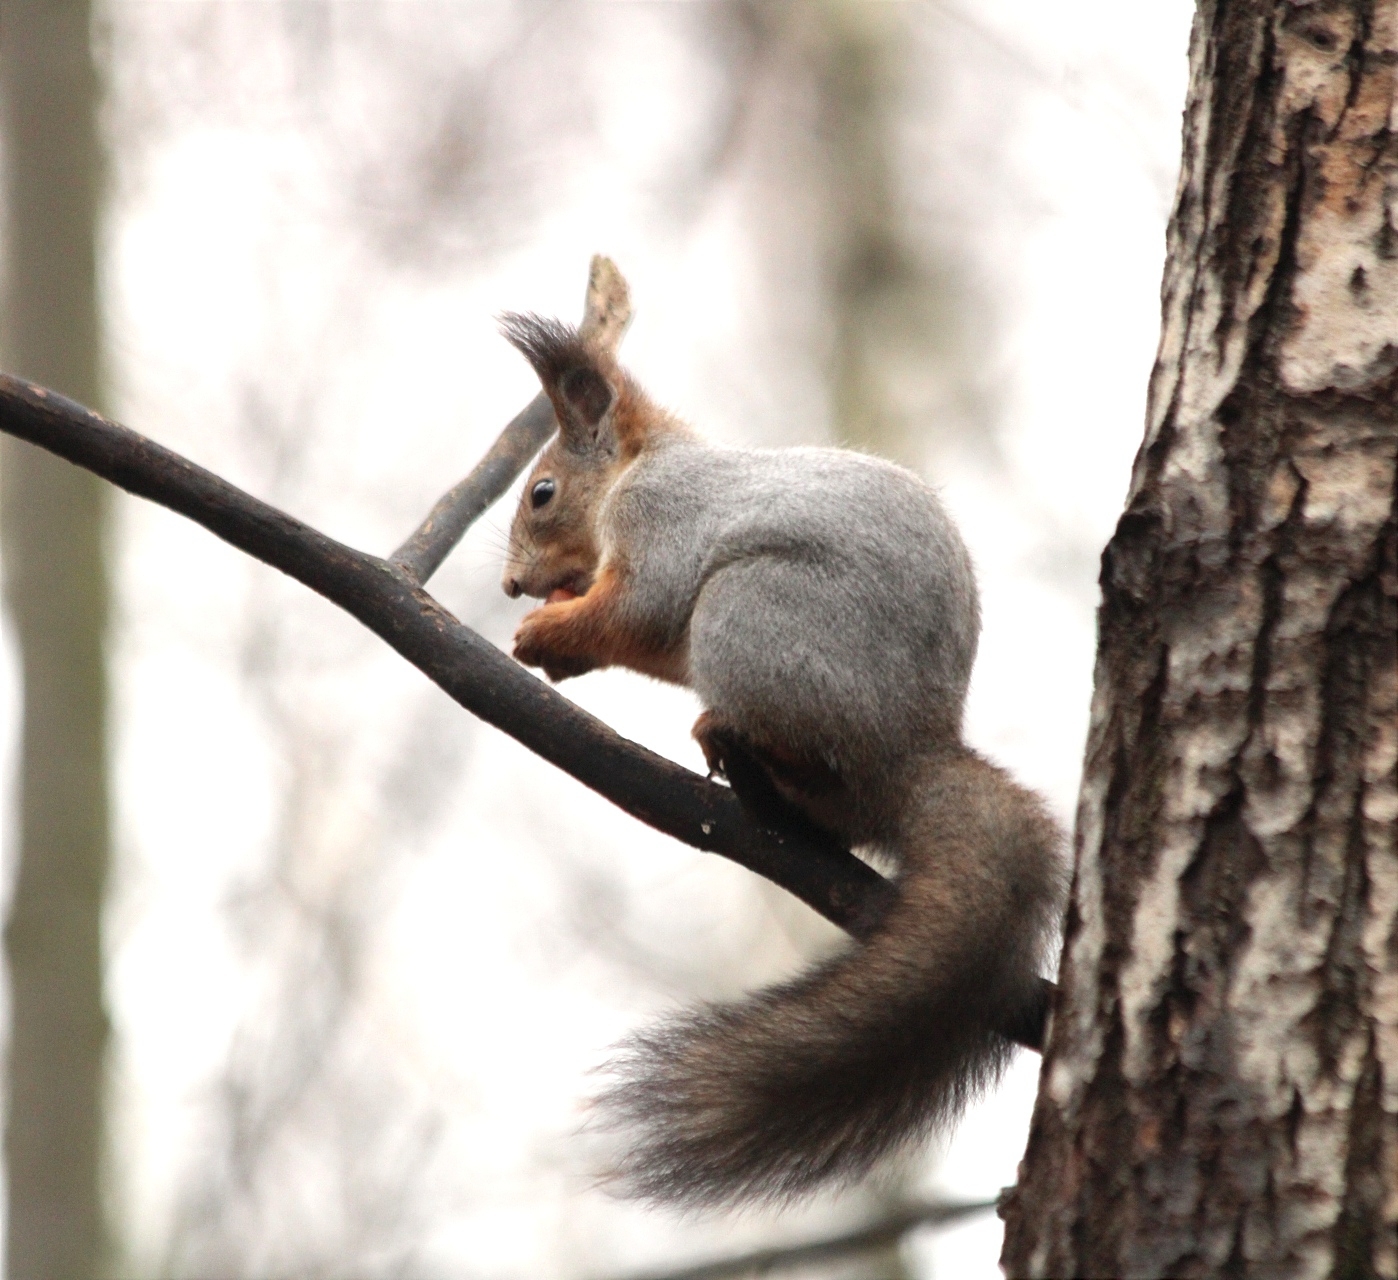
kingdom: Animalia
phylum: Chordata
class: Mammalia
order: Rodentia
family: Sciuridae
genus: Sciurus
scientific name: Sciurus vulgaris
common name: Eurasian red squirrel
